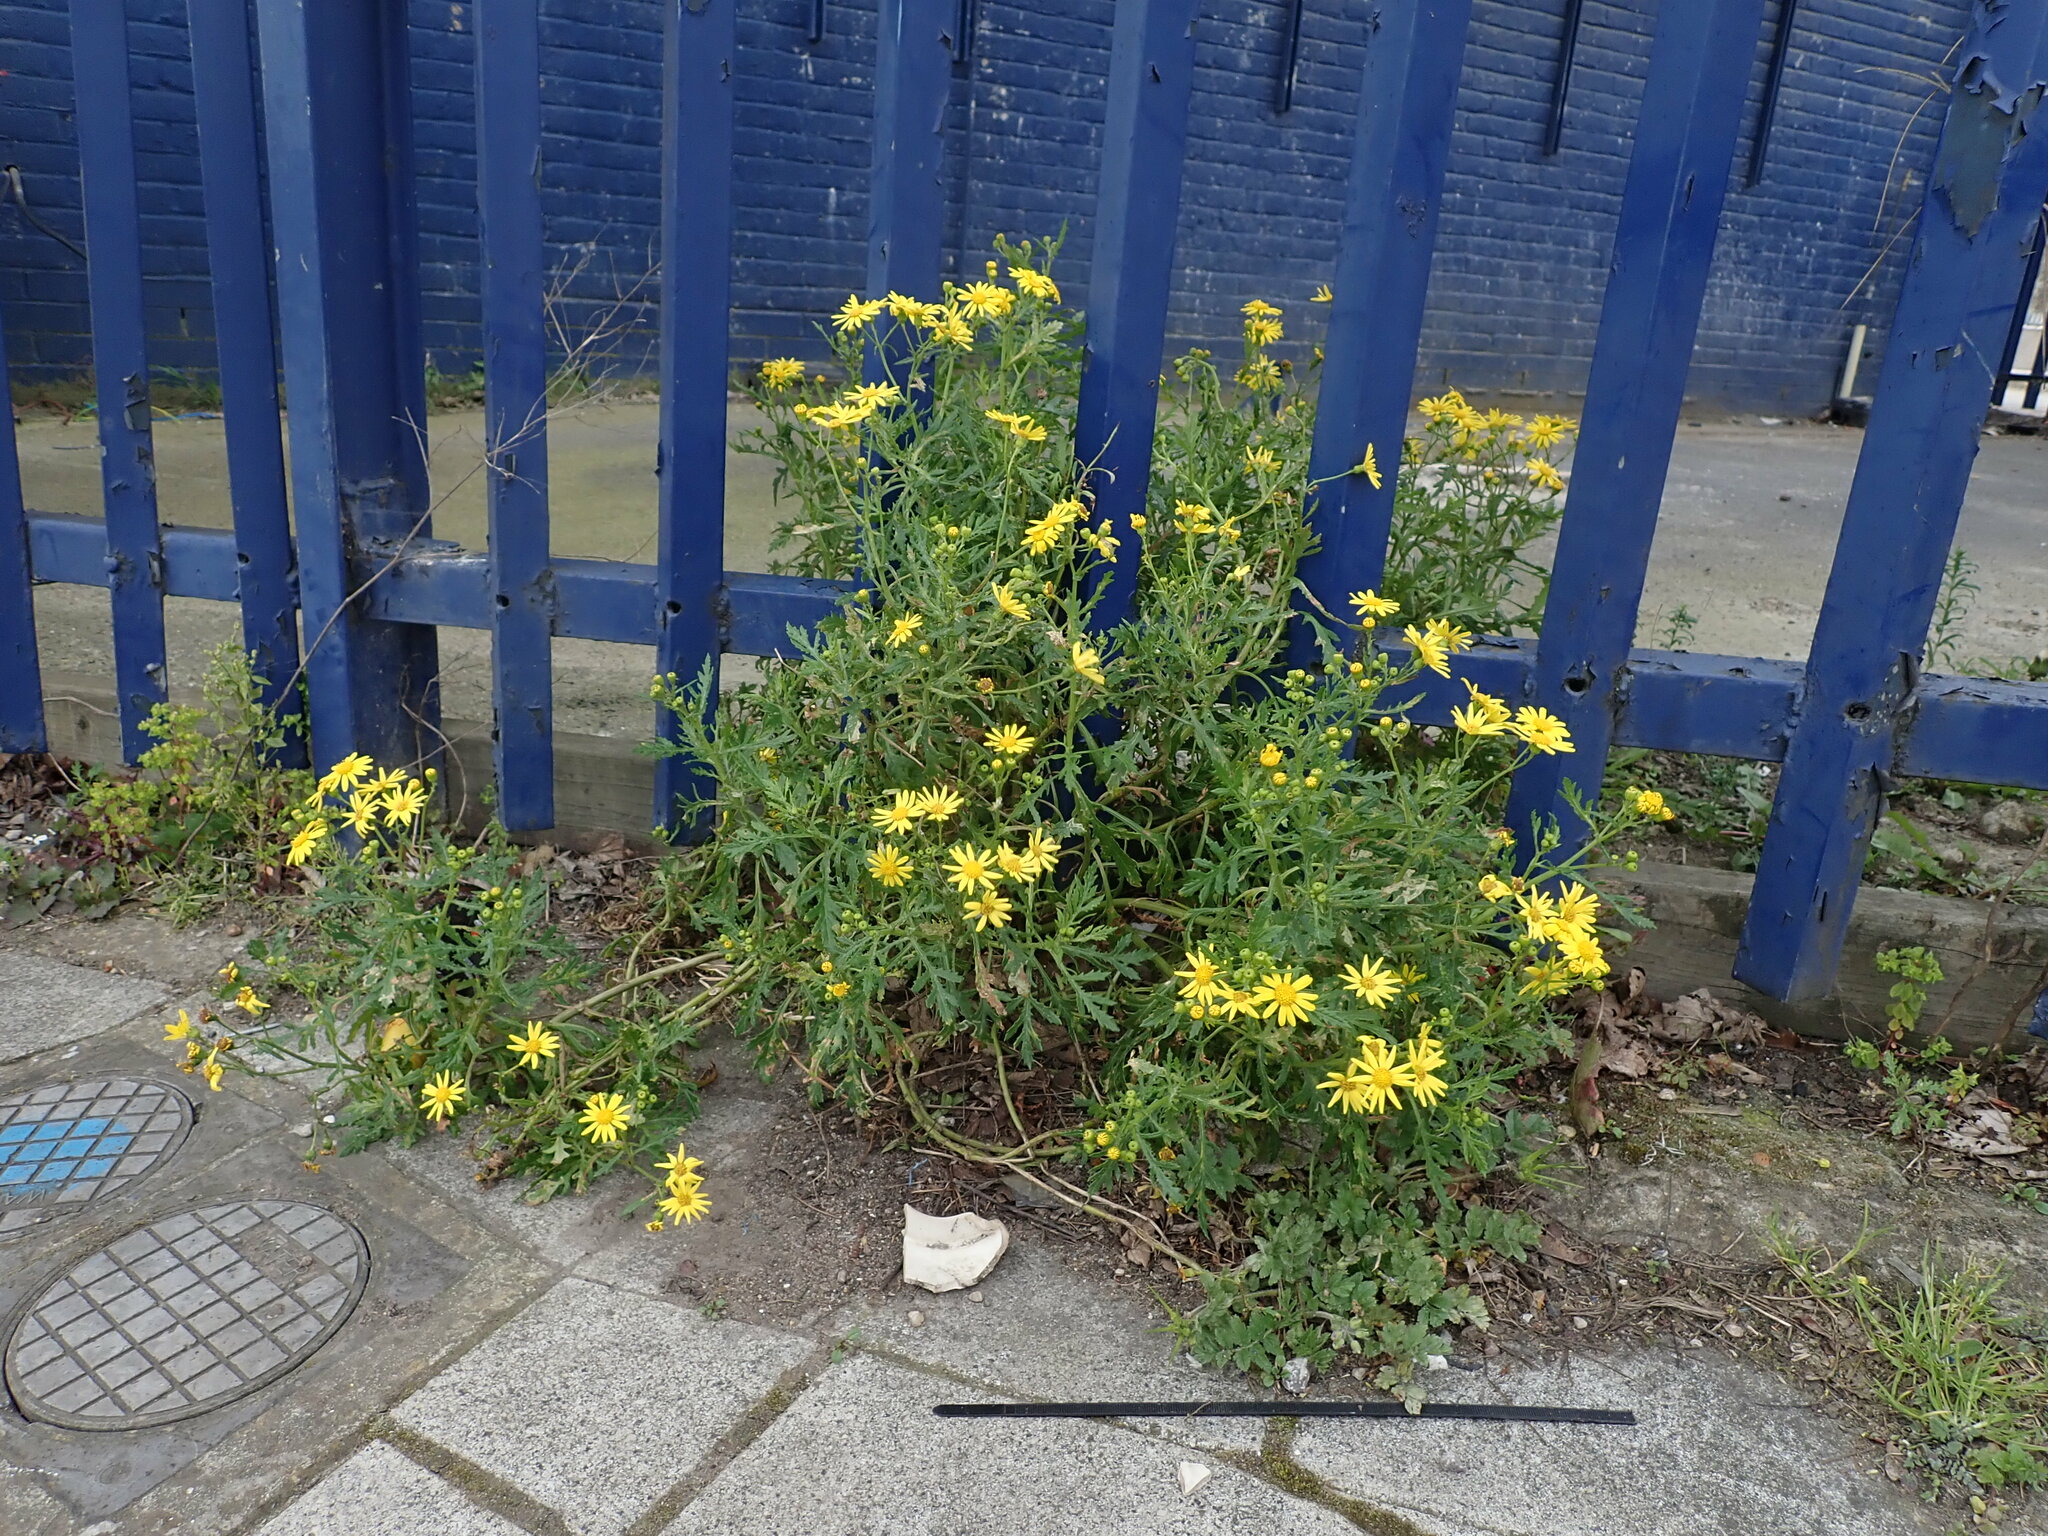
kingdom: Plantae
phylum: Tracheophyta
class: Magnoliopsida
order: Asterales
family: Asteraceae
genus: Senecio
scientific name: Senecio squalidus
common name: Oxford ragwort
